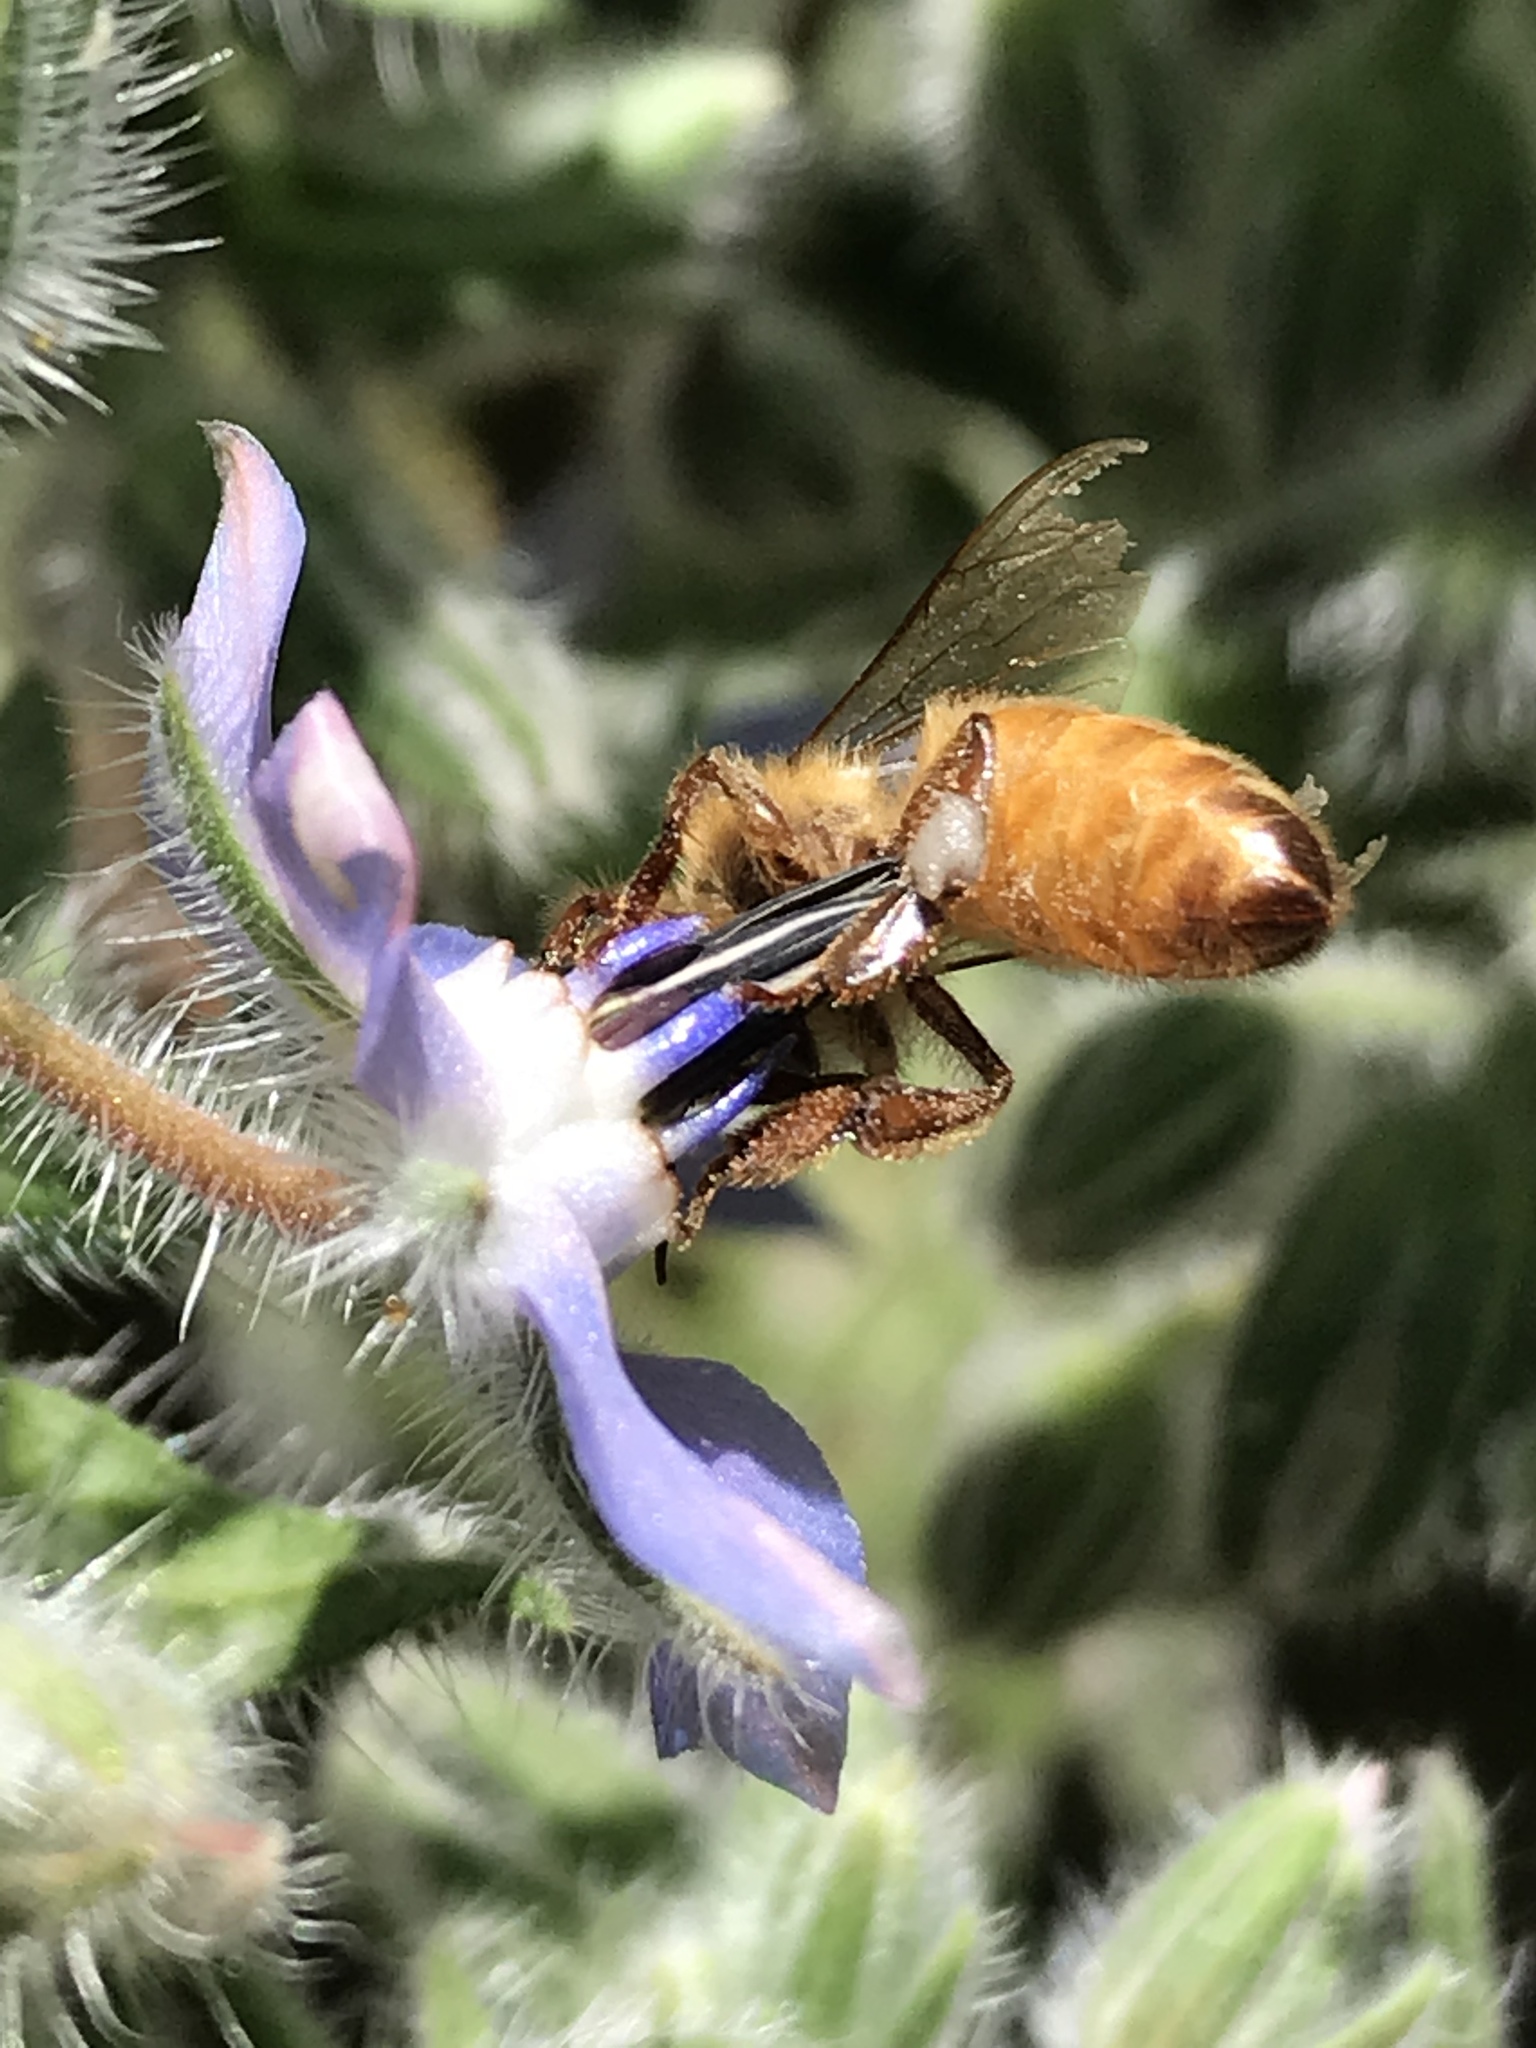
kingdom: Animalia
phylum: Arthropoda
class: Insecta
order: Hymenoptera
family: Apidae
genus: Apis
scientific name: Apis mellifera
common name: Honey bee
